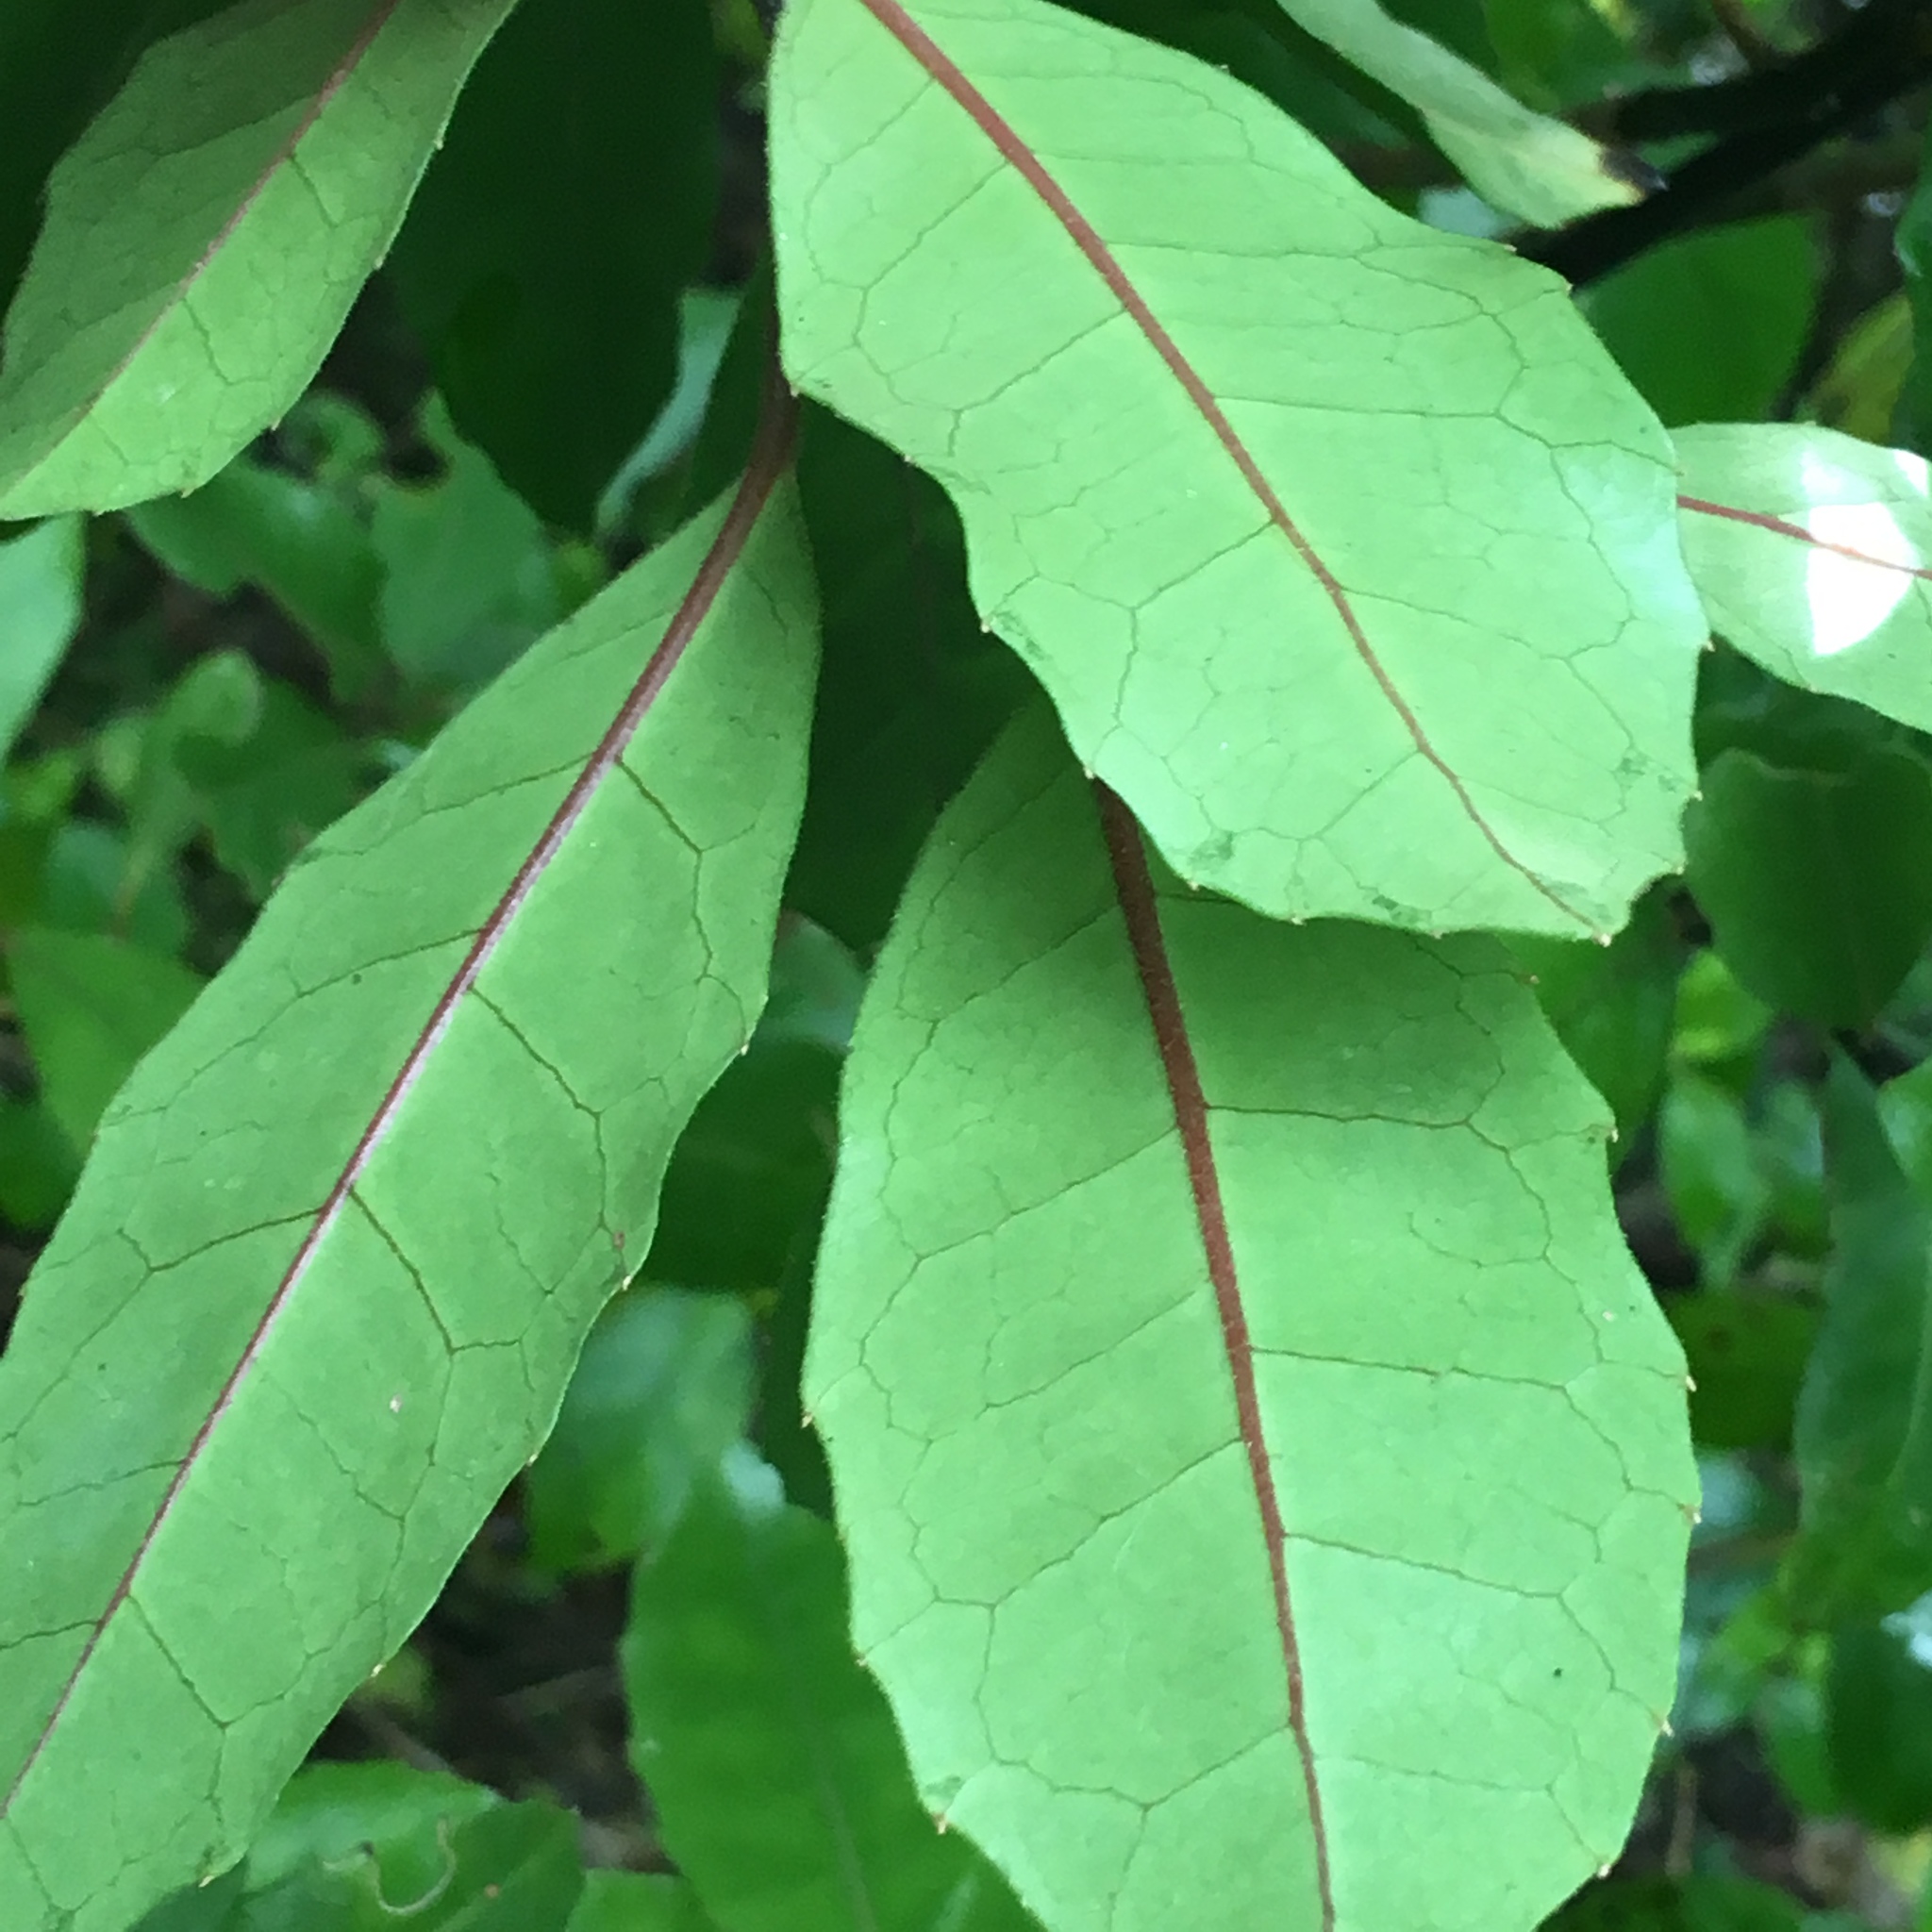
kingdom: Plantae
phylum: Tracheophyta
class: Magnoliopsida
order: Laurales
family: Monimiaceae
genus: Hedycarya
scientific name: Hedycarya arborea
